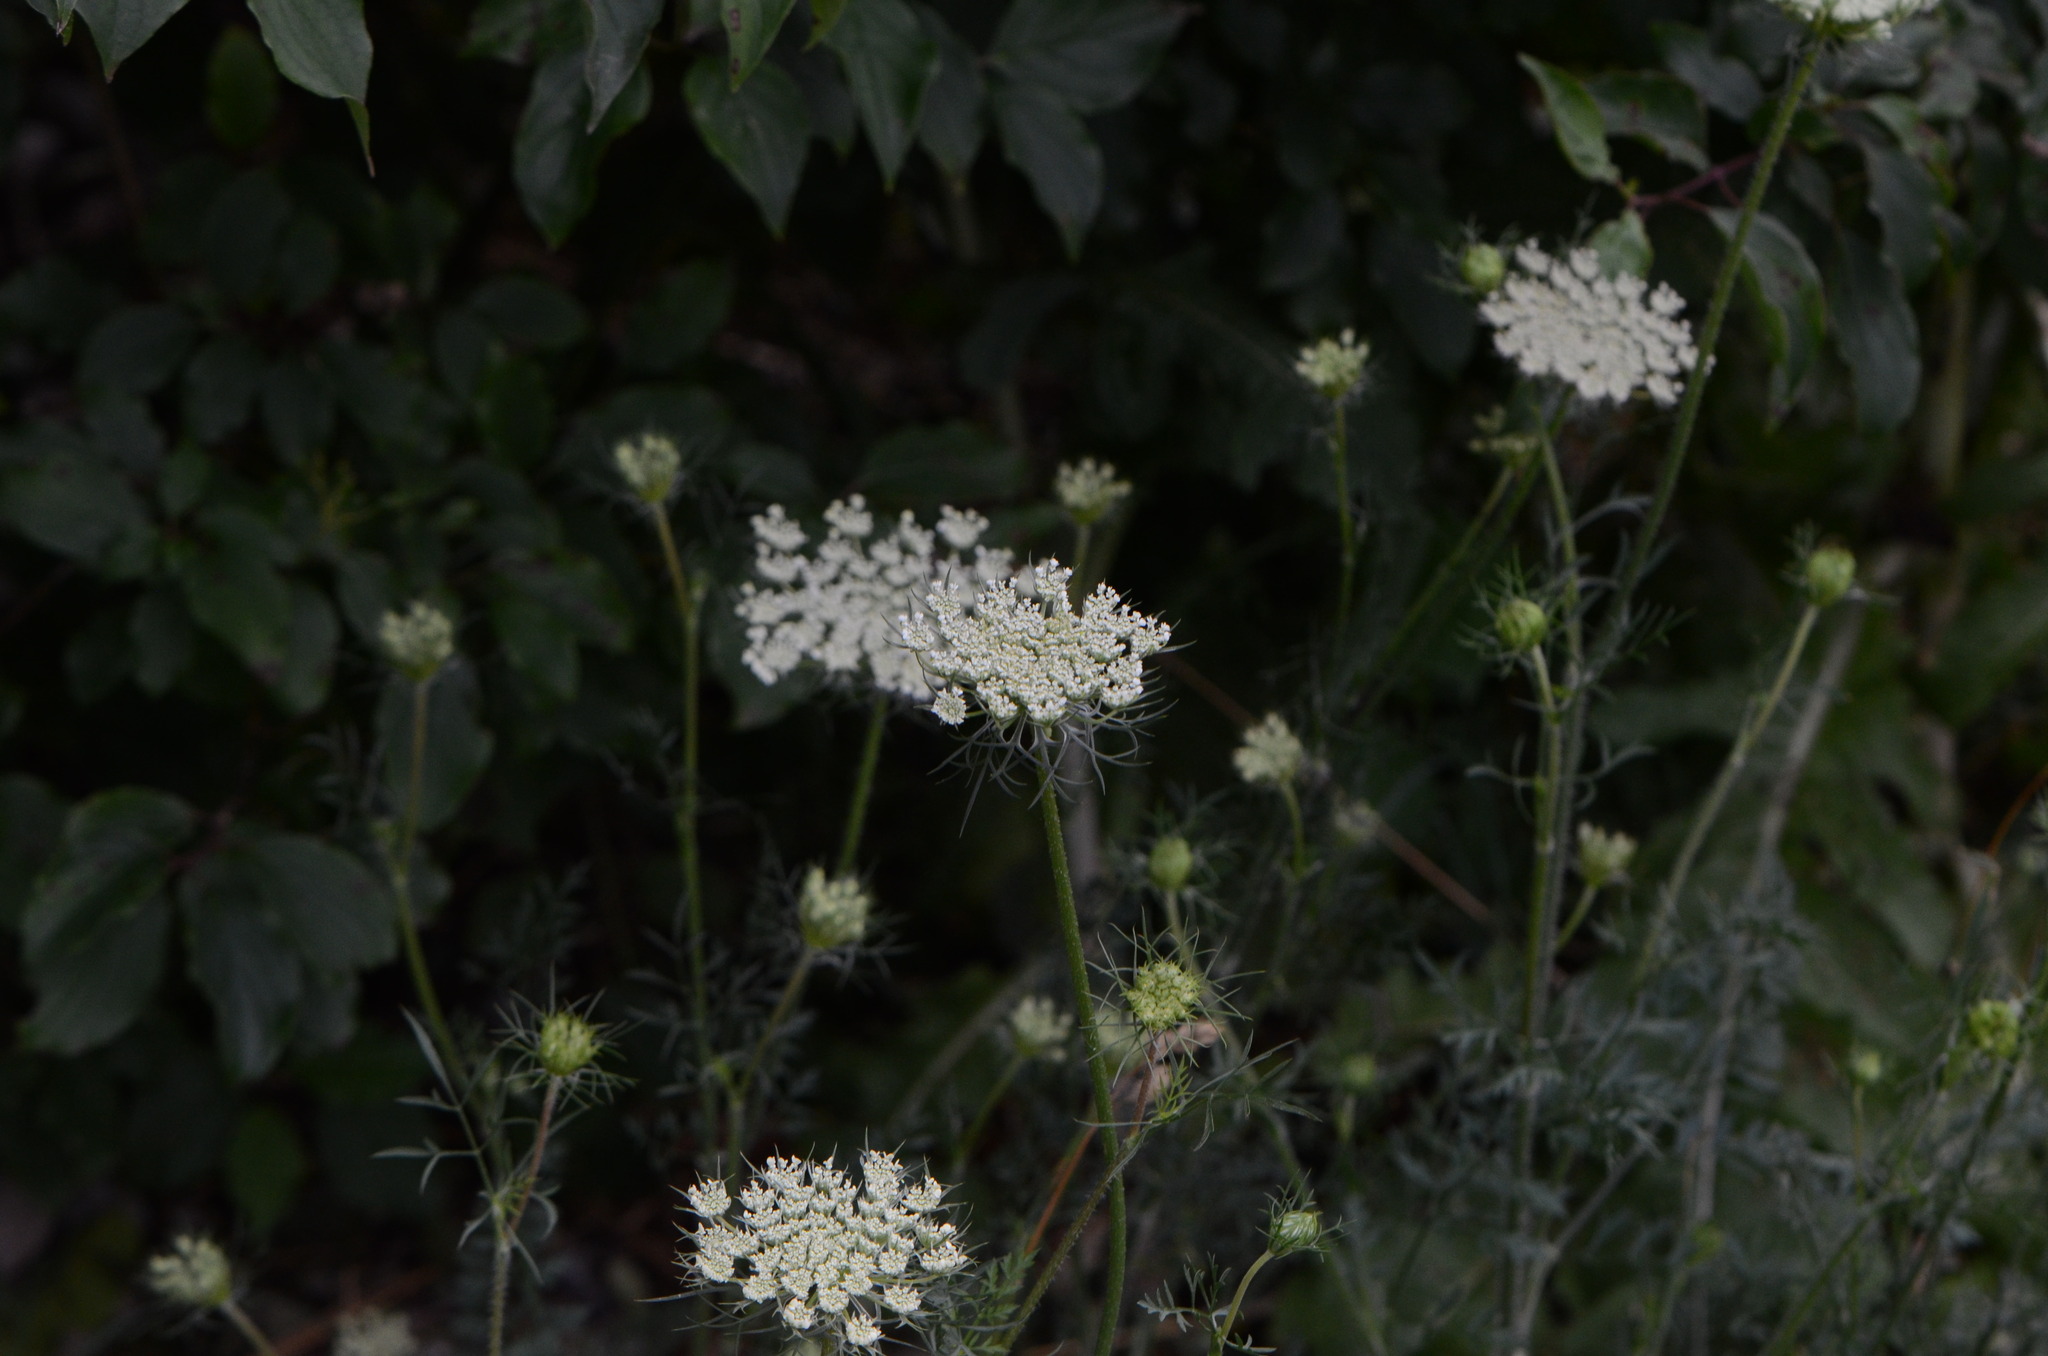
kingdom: Plantae
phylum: Tracheophyta
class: Magnoliopsida
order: Apiales
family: Apiaceae
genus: Daucus
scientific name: Daucus carota
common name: Wild carrot
